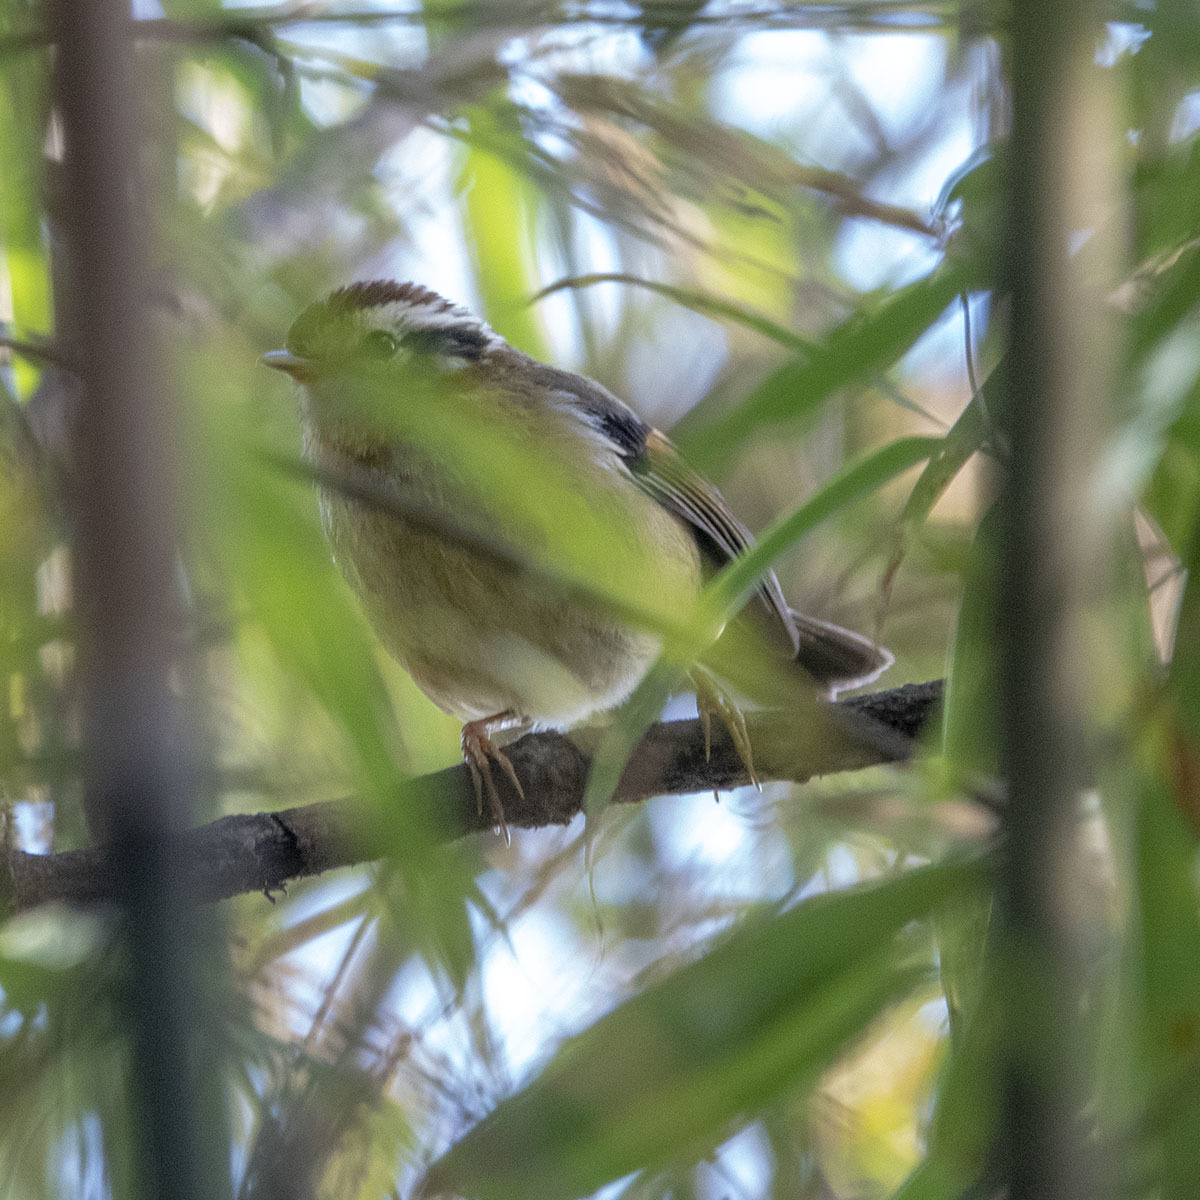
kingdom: Animalia
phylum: Chordata
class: Aves
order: Passeriformes
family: Pellorneidae
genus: Alcippe
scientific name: Alcippe castaneceps
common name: Rufous-winged fulvetta
